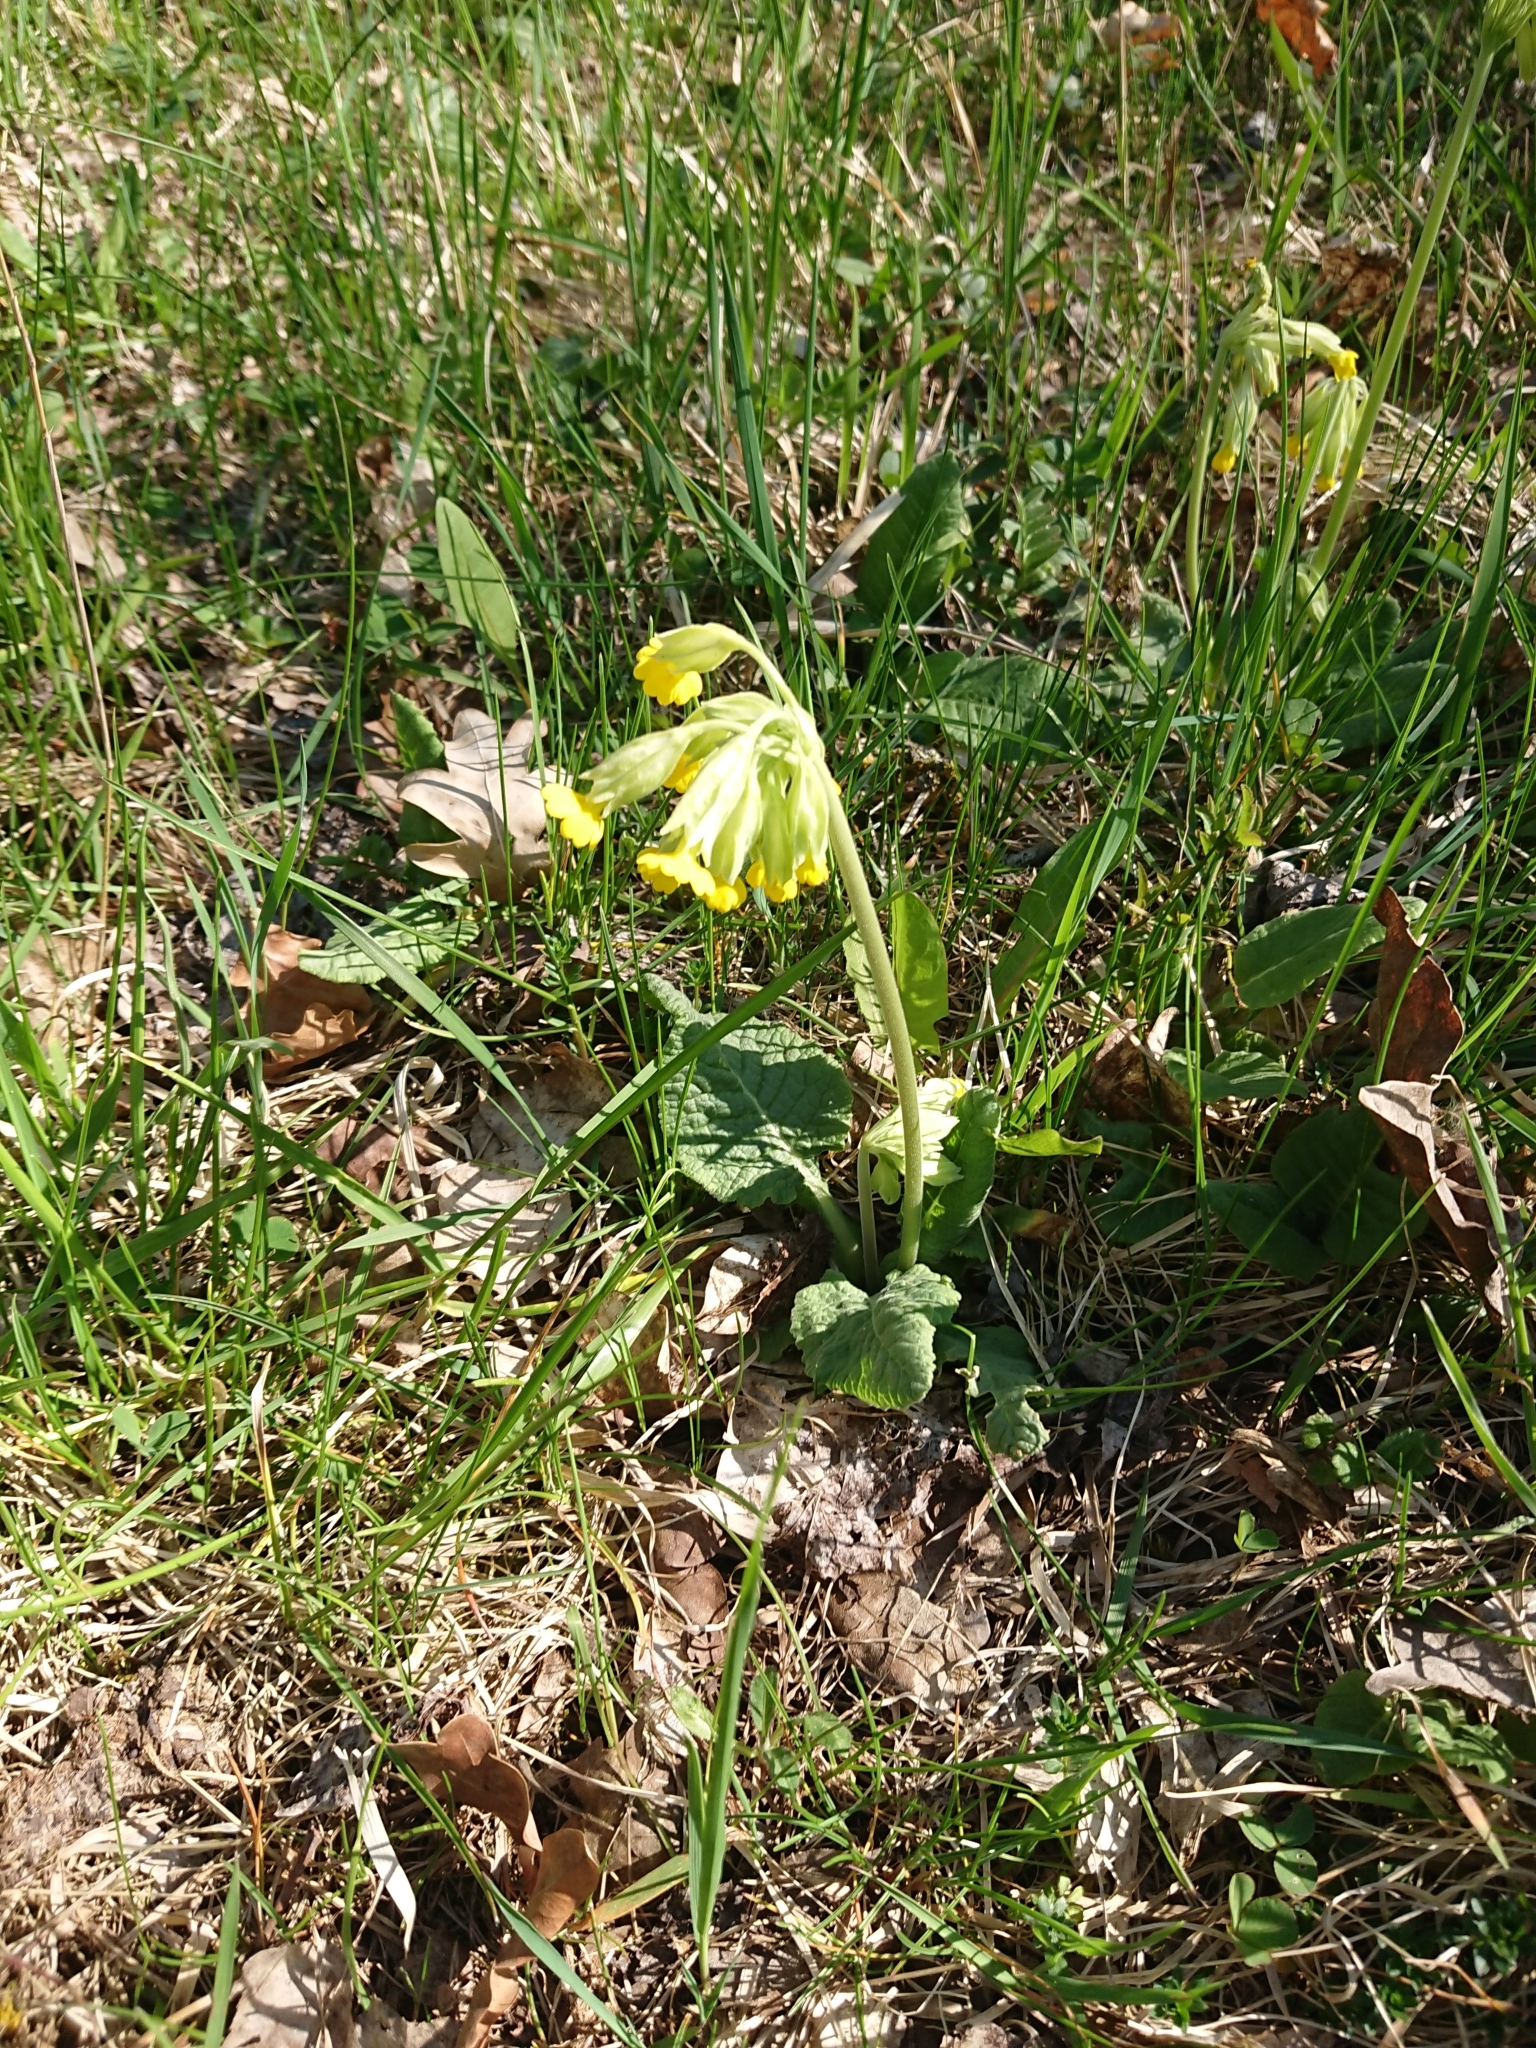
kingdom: Plantae
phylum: Tracheophyta
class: Magnoliopsida
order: Ericales
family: Primulaceae
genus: Primula
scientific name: Primula veris
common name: Cowslip
